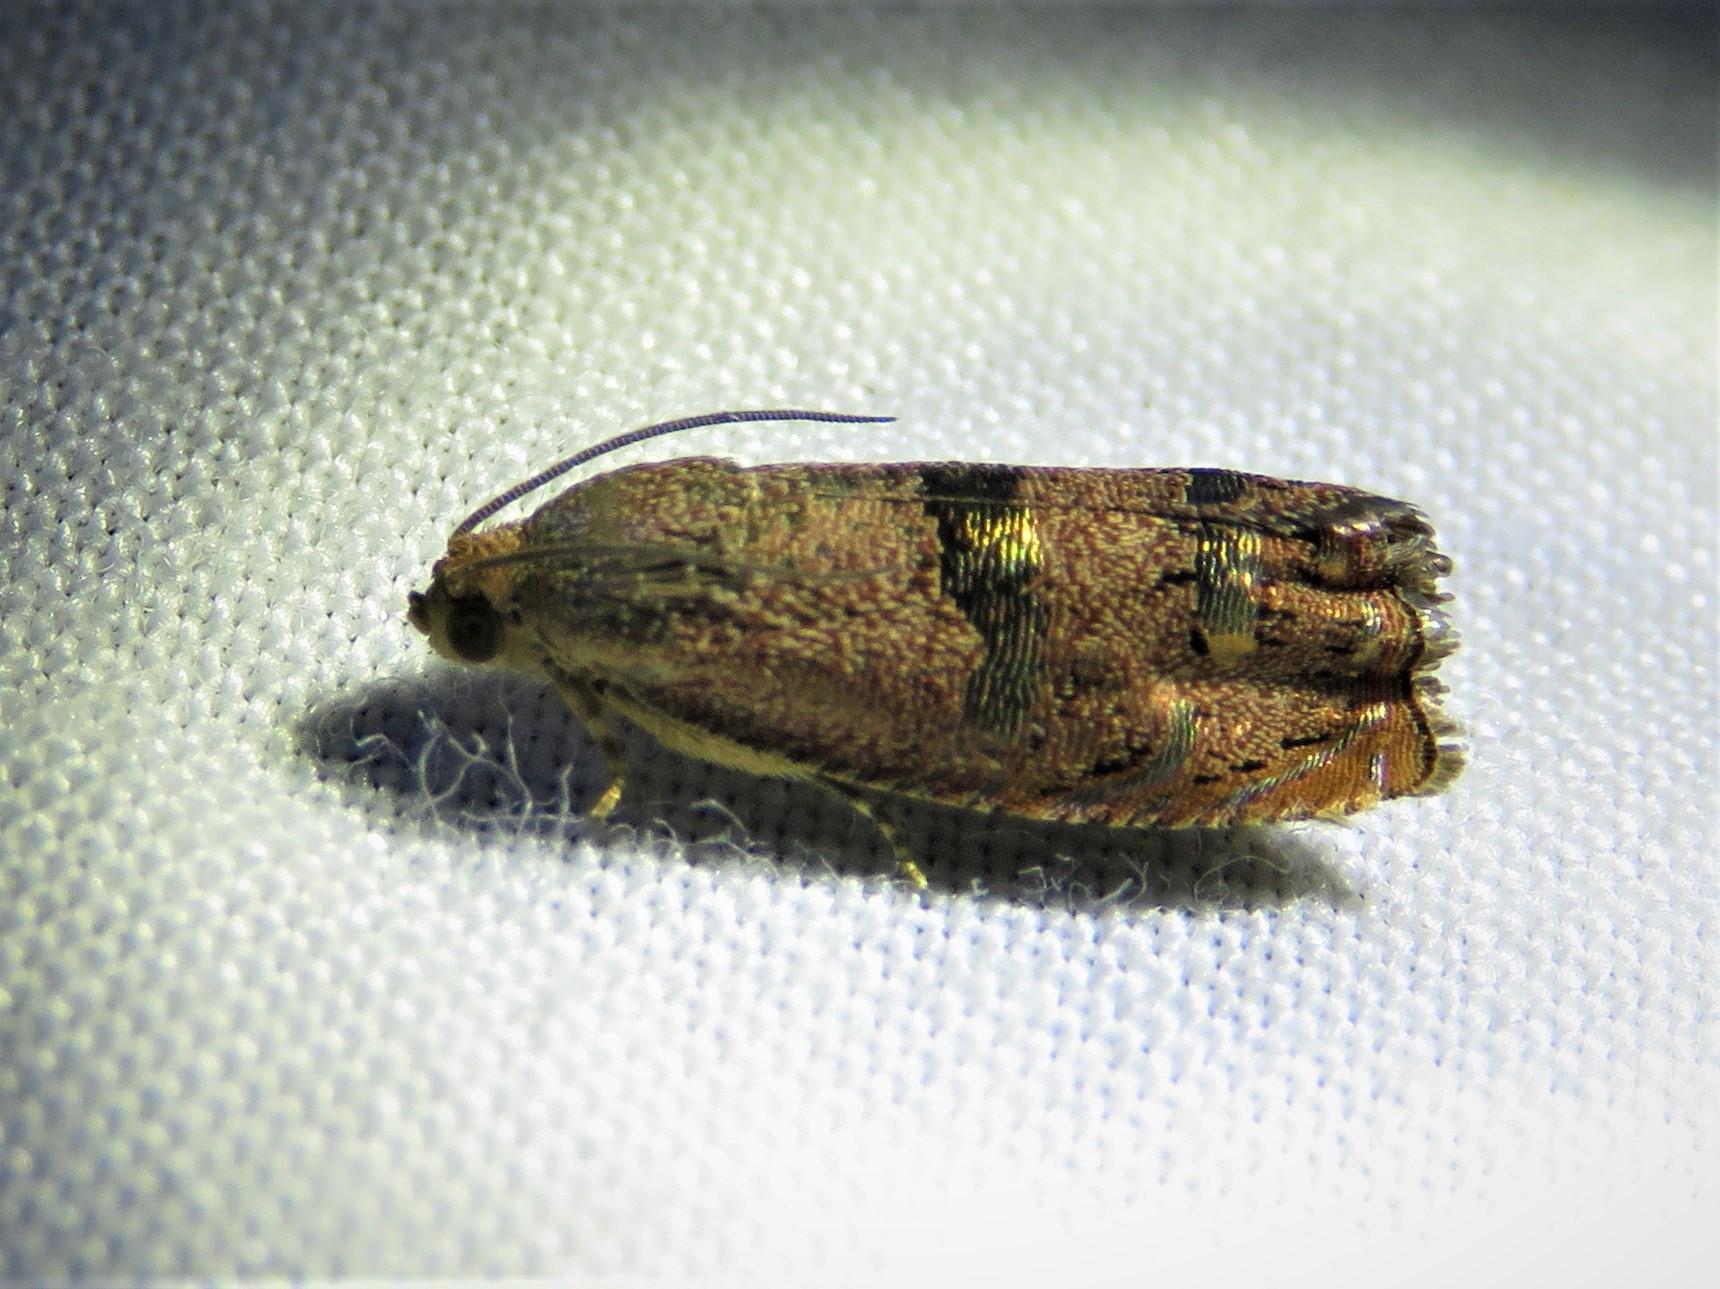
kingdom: Animalia
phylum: Arthropoda
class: Insecta
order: Lepidoptera
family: Tortricidae
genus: Cydia
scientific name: Cydia latiferreana
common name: Filbertworm moth
